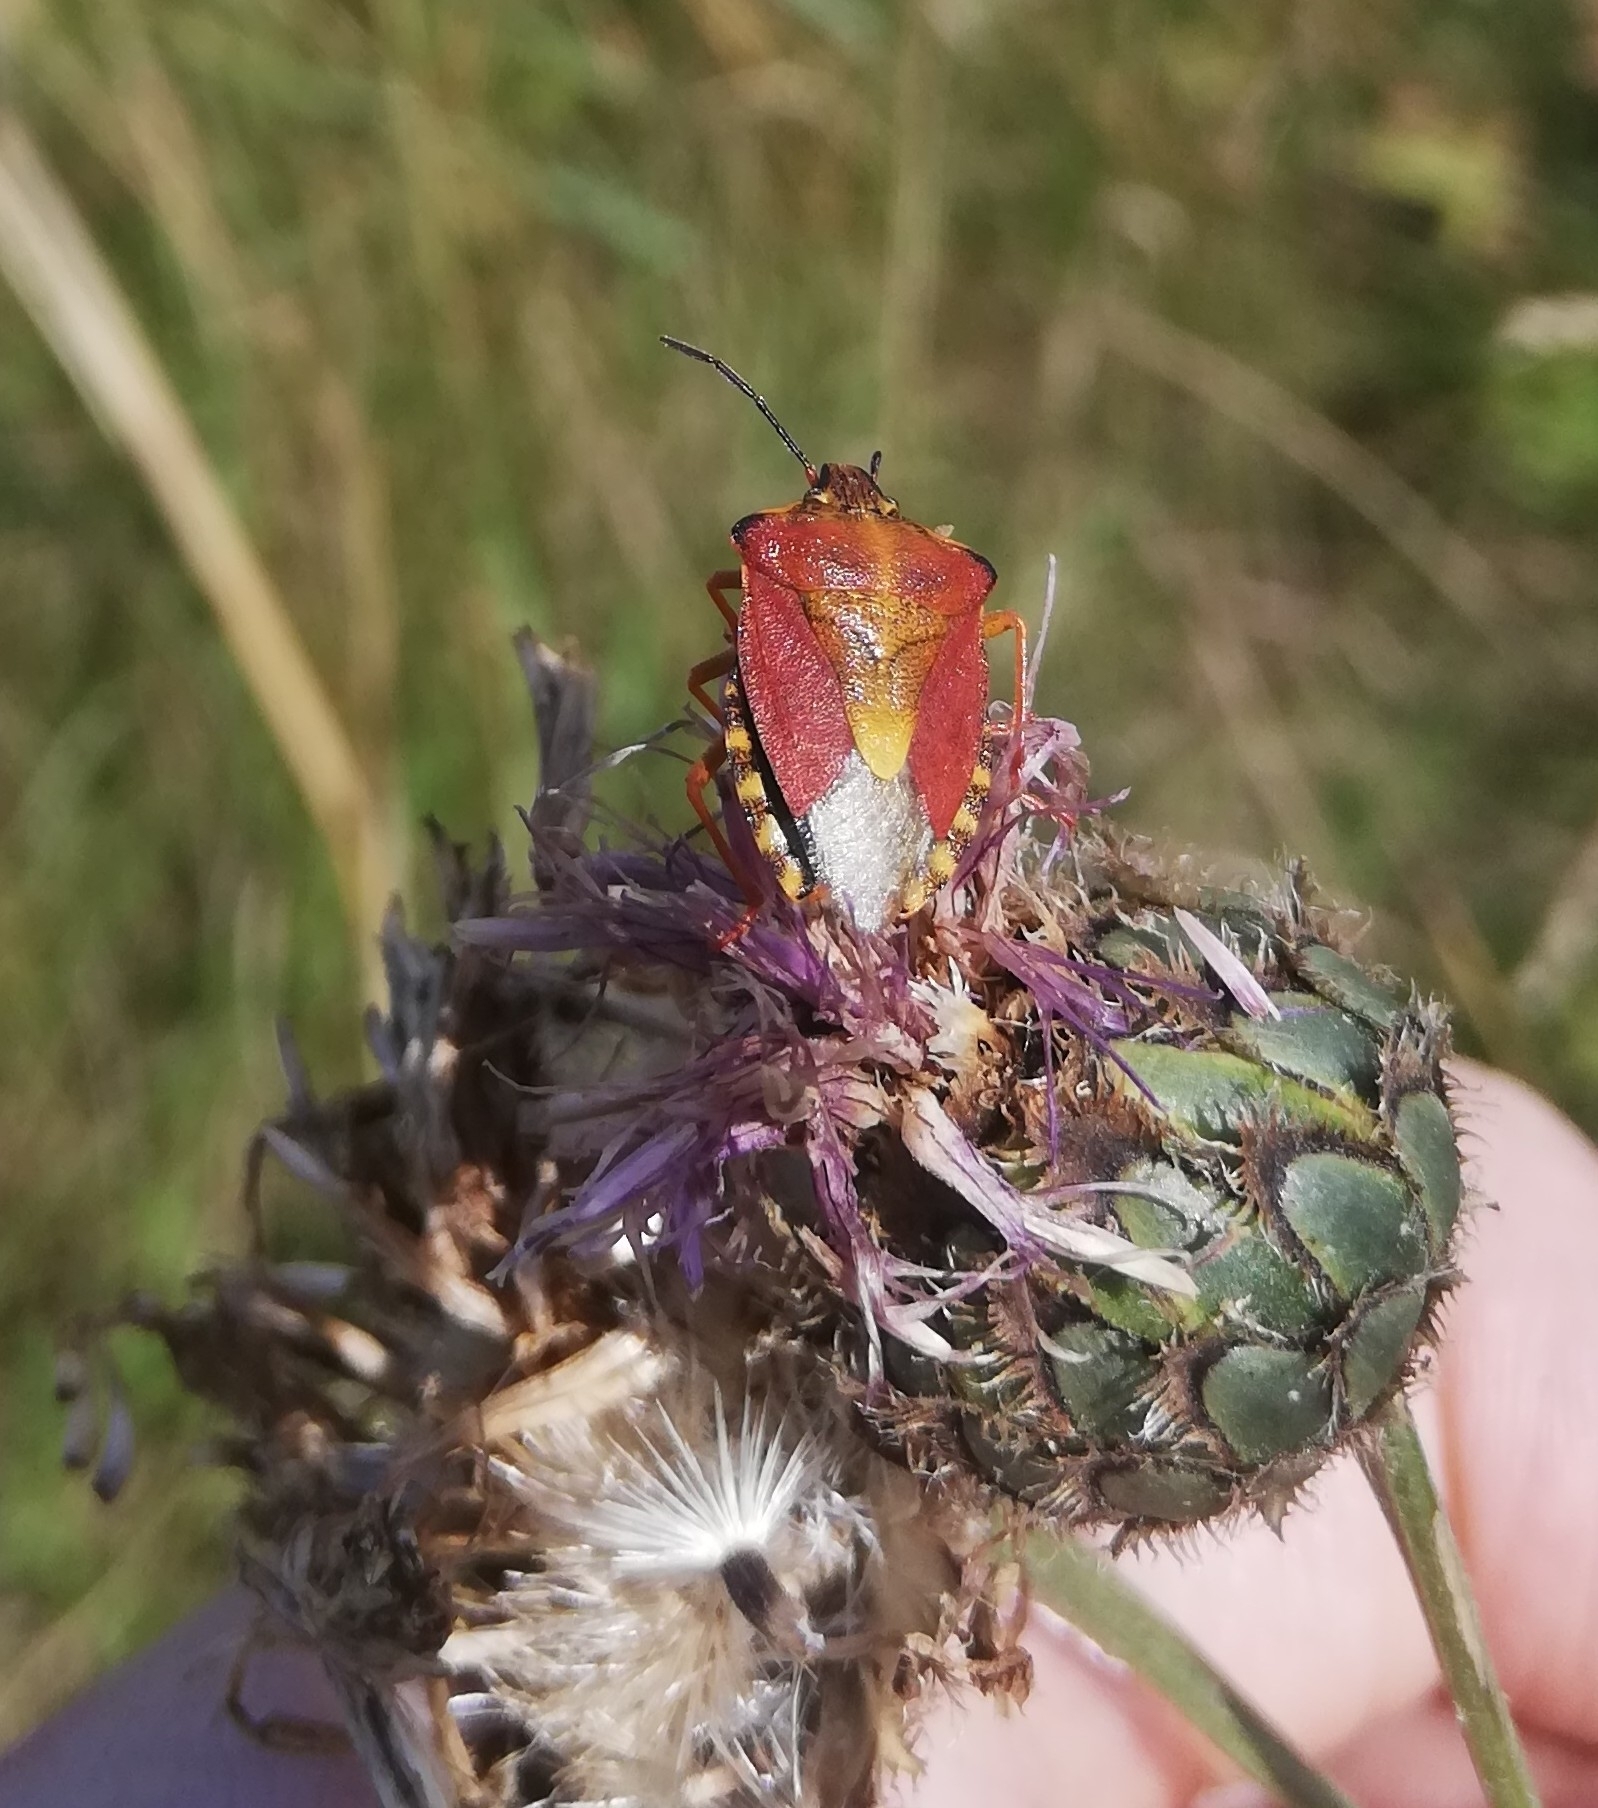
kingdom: Animalia
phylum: Arthropoda
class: Insecta
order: Hemiptera
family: Pentatomidae
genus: Carpocoris
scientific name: Carpocoris purpureipennis
